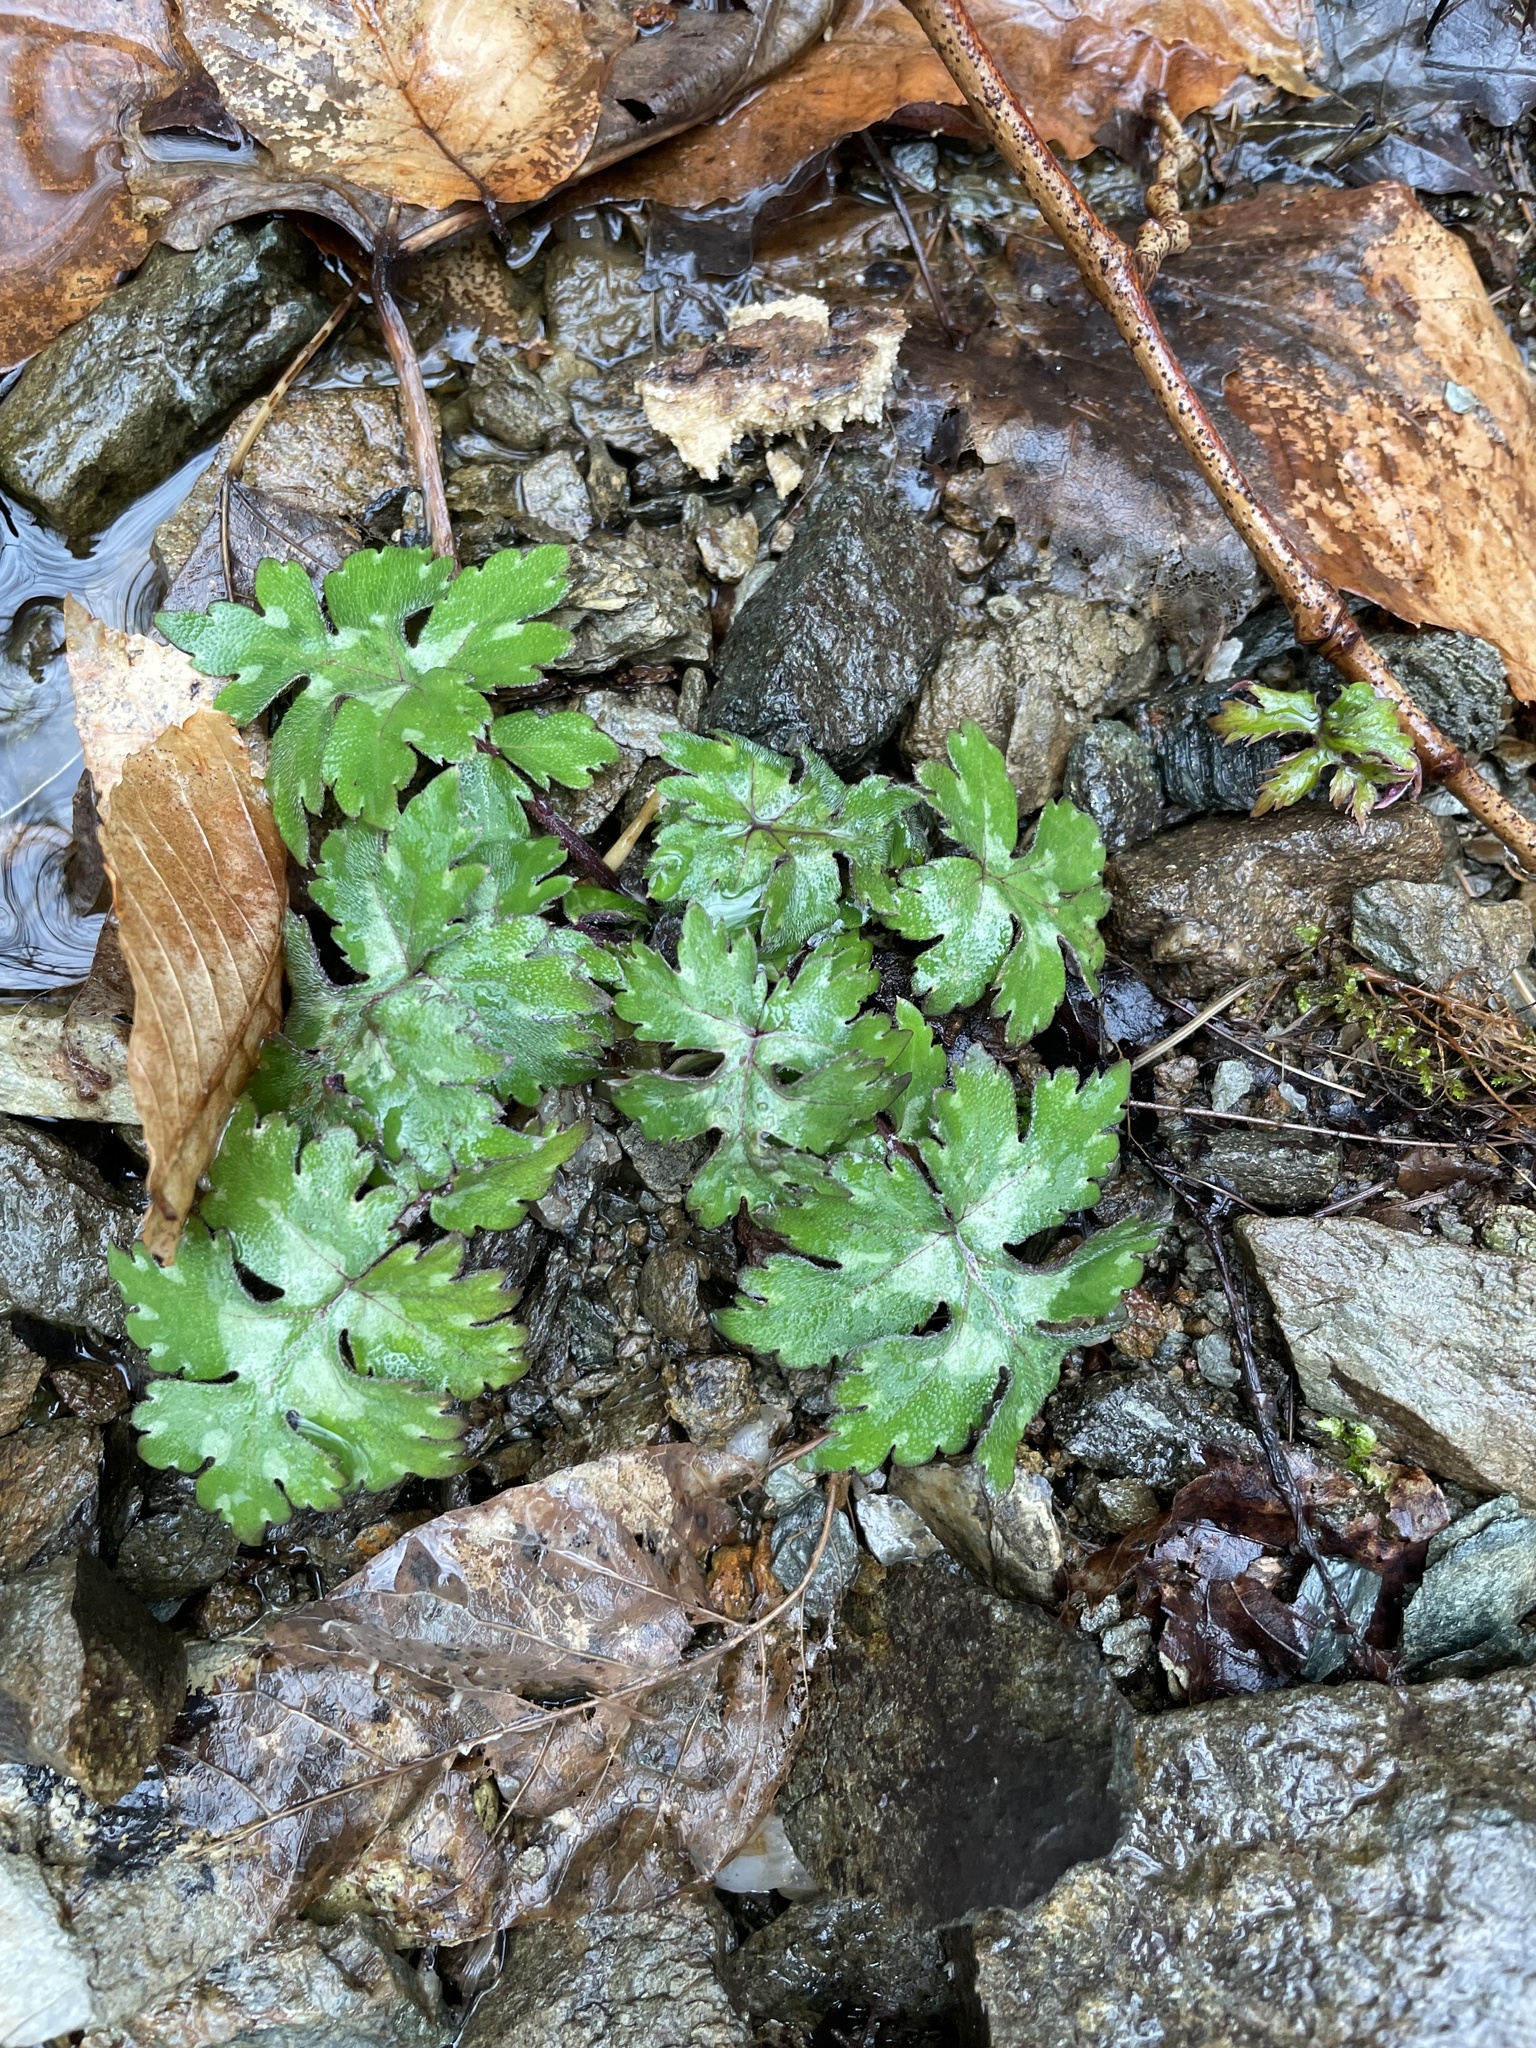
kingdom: Plantae
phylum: Tracheophyta
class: Magnoliopsida
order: Boraginales
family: Hydrophyllaceae
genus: Hydrophyllum
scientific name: Hydrophyllum virginianum
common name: Virginia waterleaf
